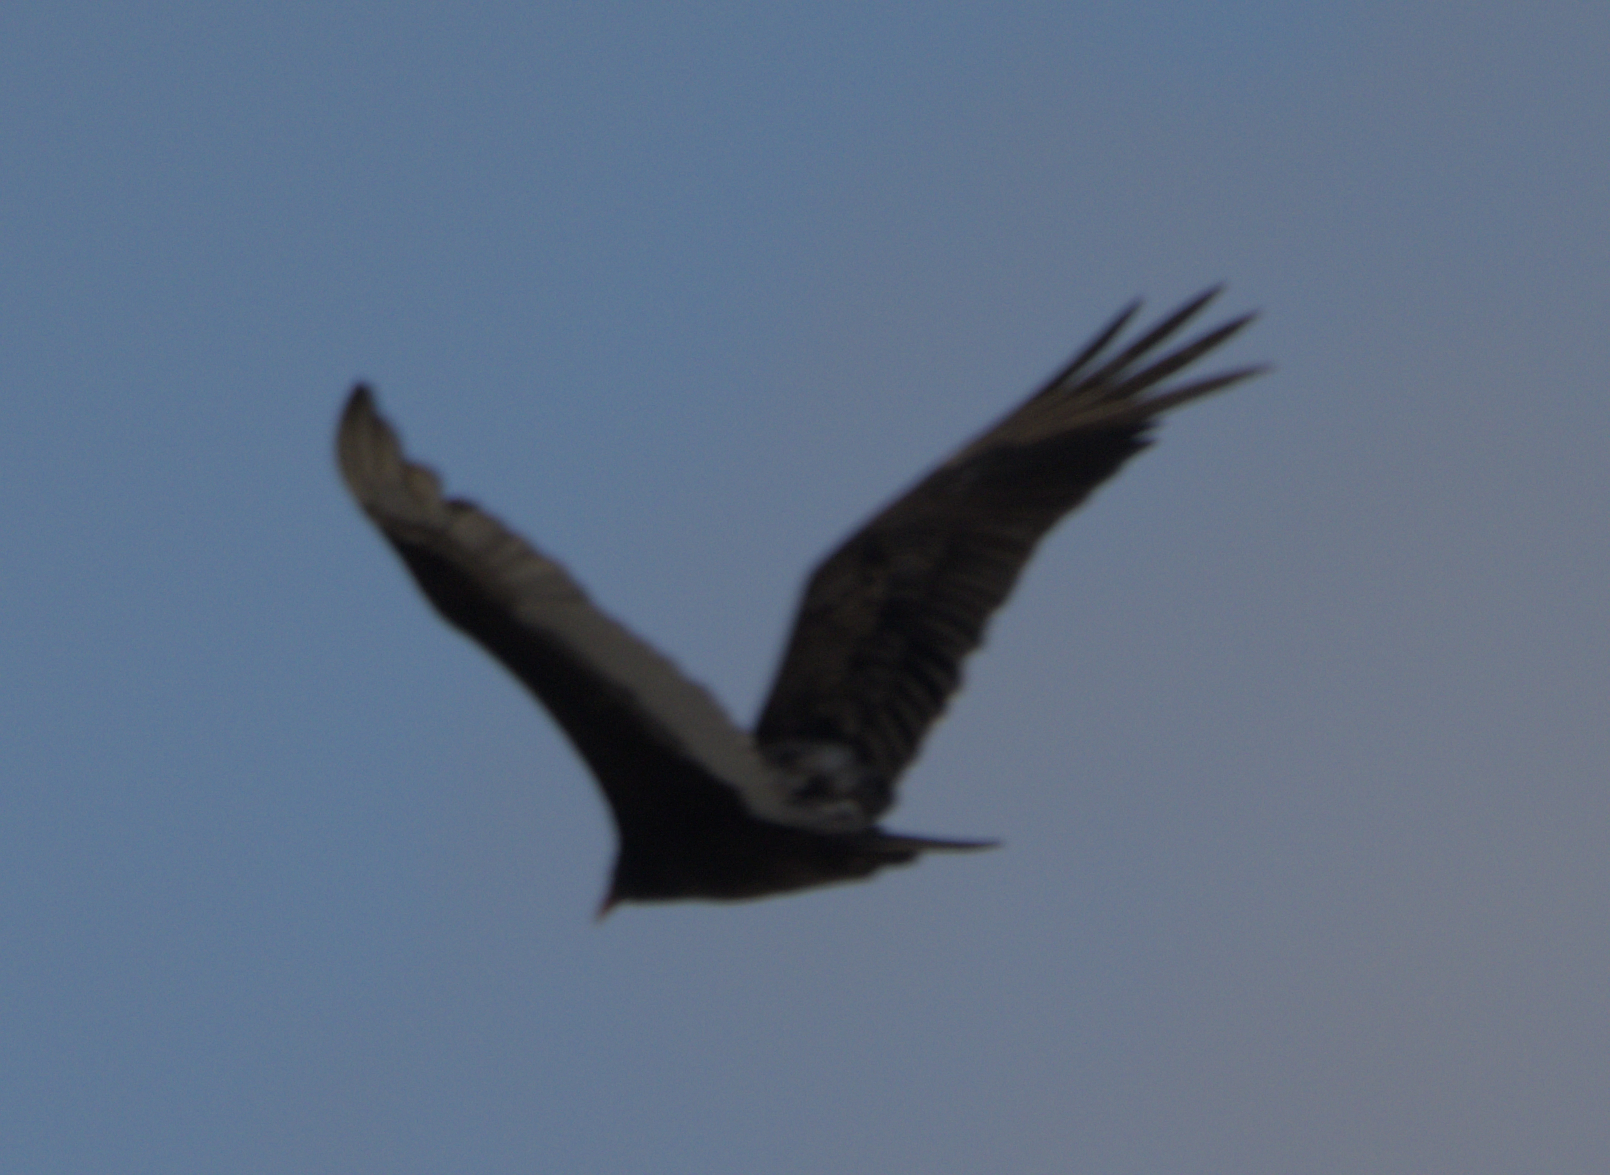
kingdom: Animalia
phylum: Chordata
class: Aves
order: Accipitriformes
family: Cathartidae
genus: Cathartes
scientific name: Cathartes aura
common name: Turkey vulture
